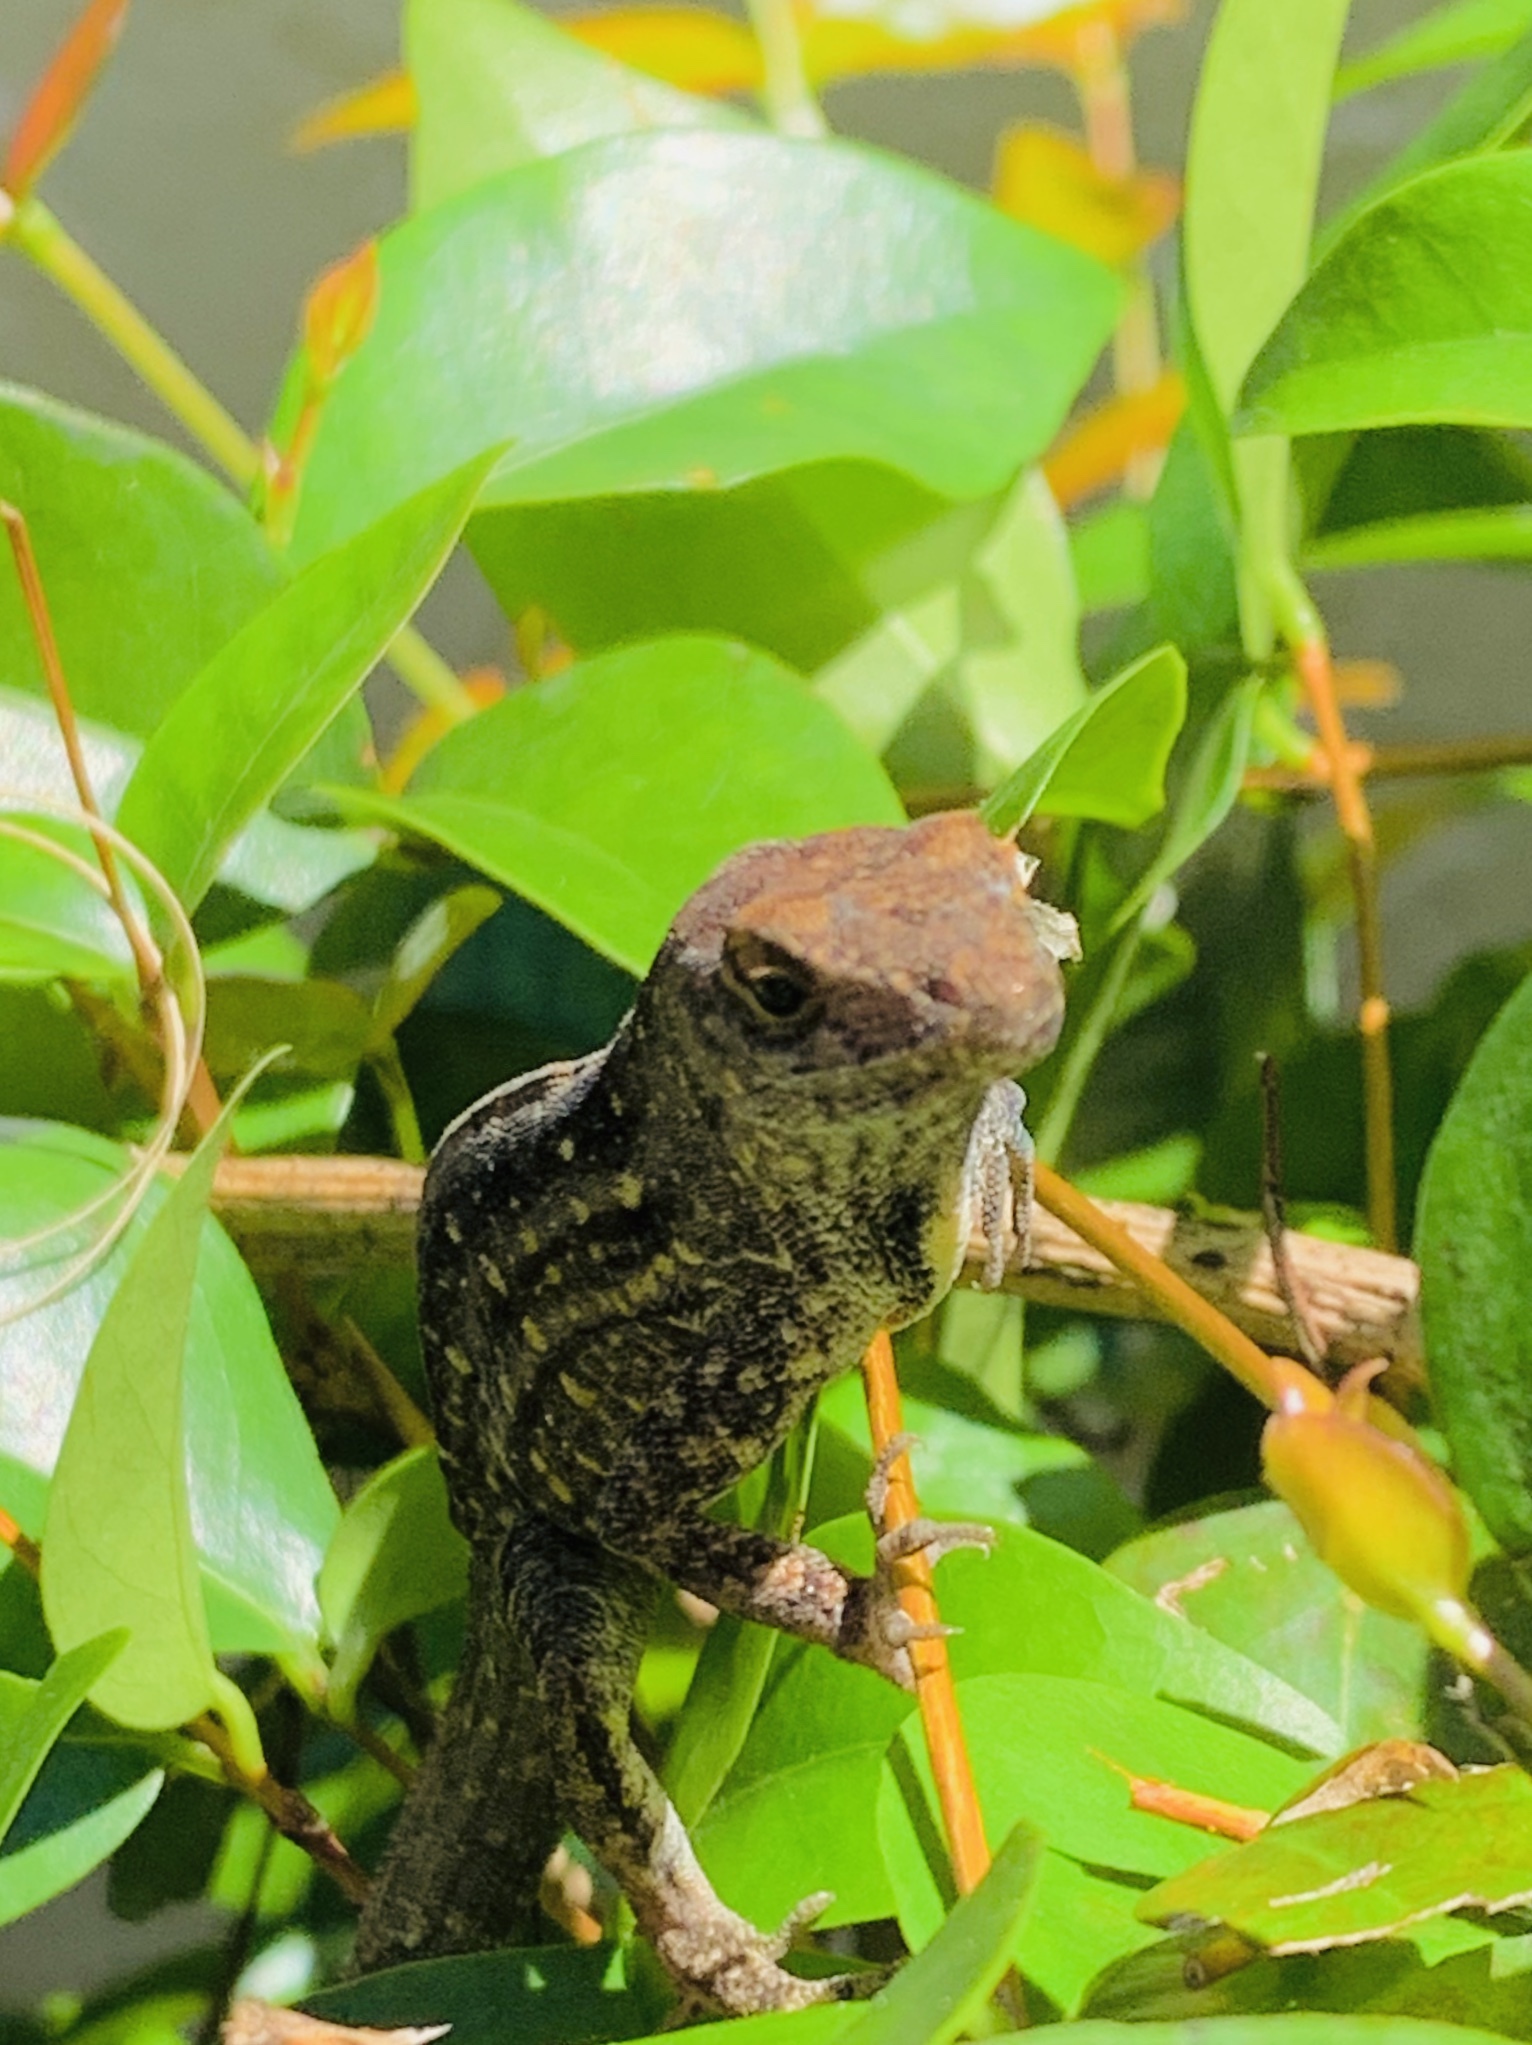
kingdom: Animalia
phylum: Chordata
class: Squamata
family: Dactyloidae
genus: Anolis
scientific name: Anolis sagrei
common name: Brown anole
